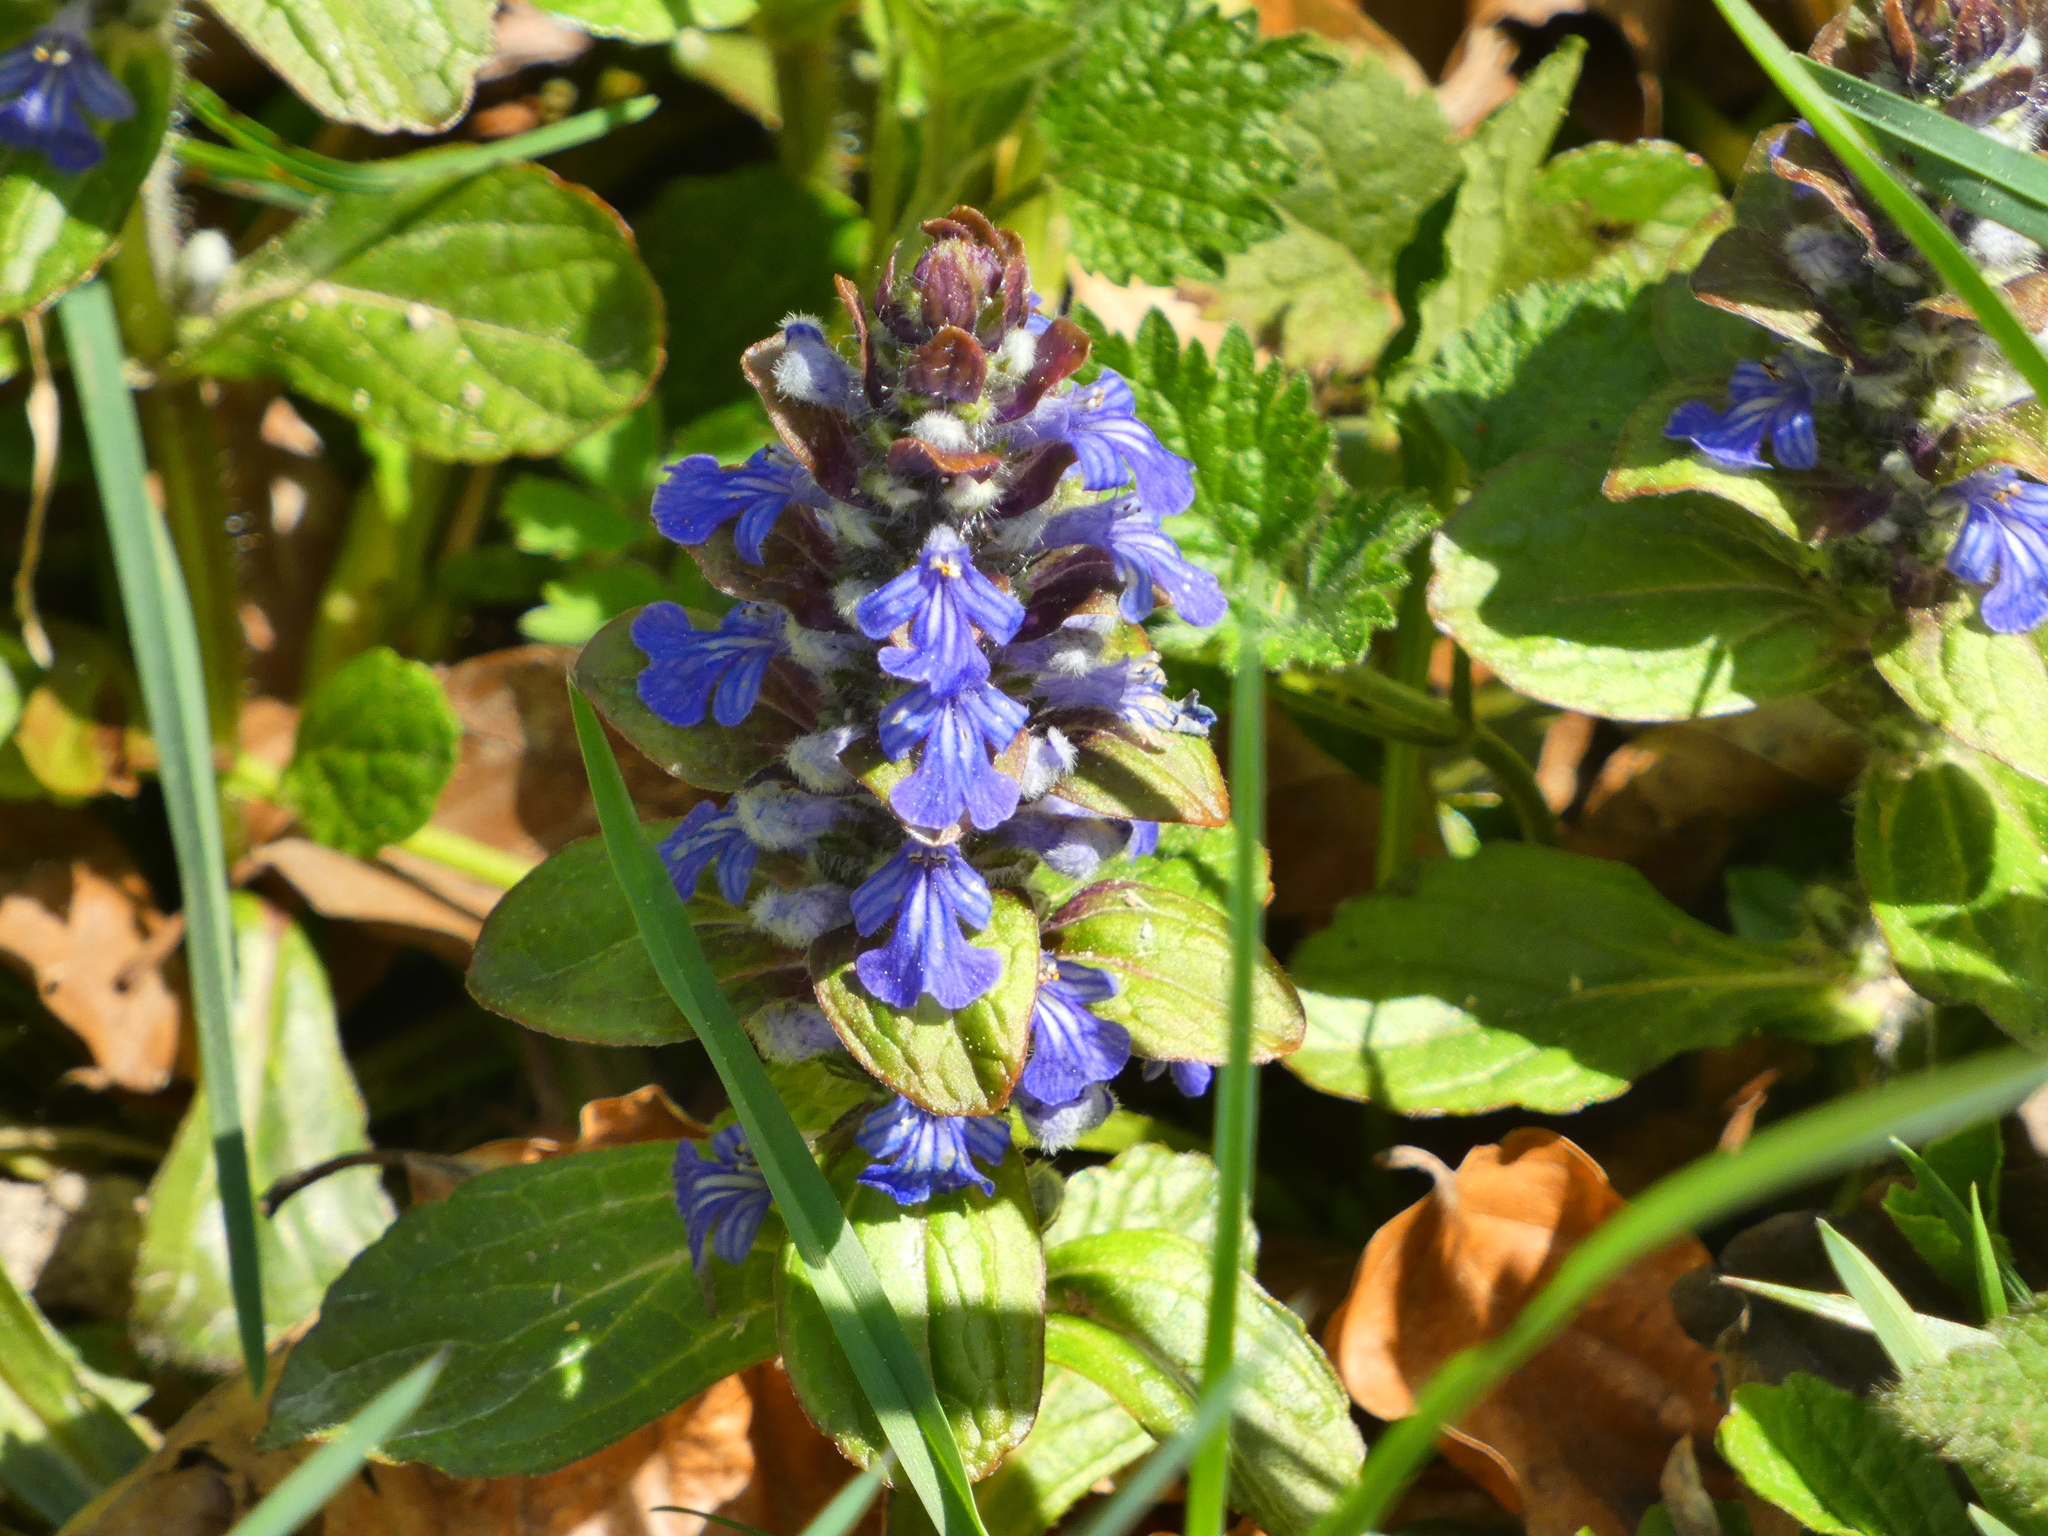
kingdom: Plantae
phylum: Tracheophyta
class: Magnoliopsida
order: Lamiales
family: Lamiaceae
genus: Ajuga
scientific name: Ajuga reptans
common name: Bugle
